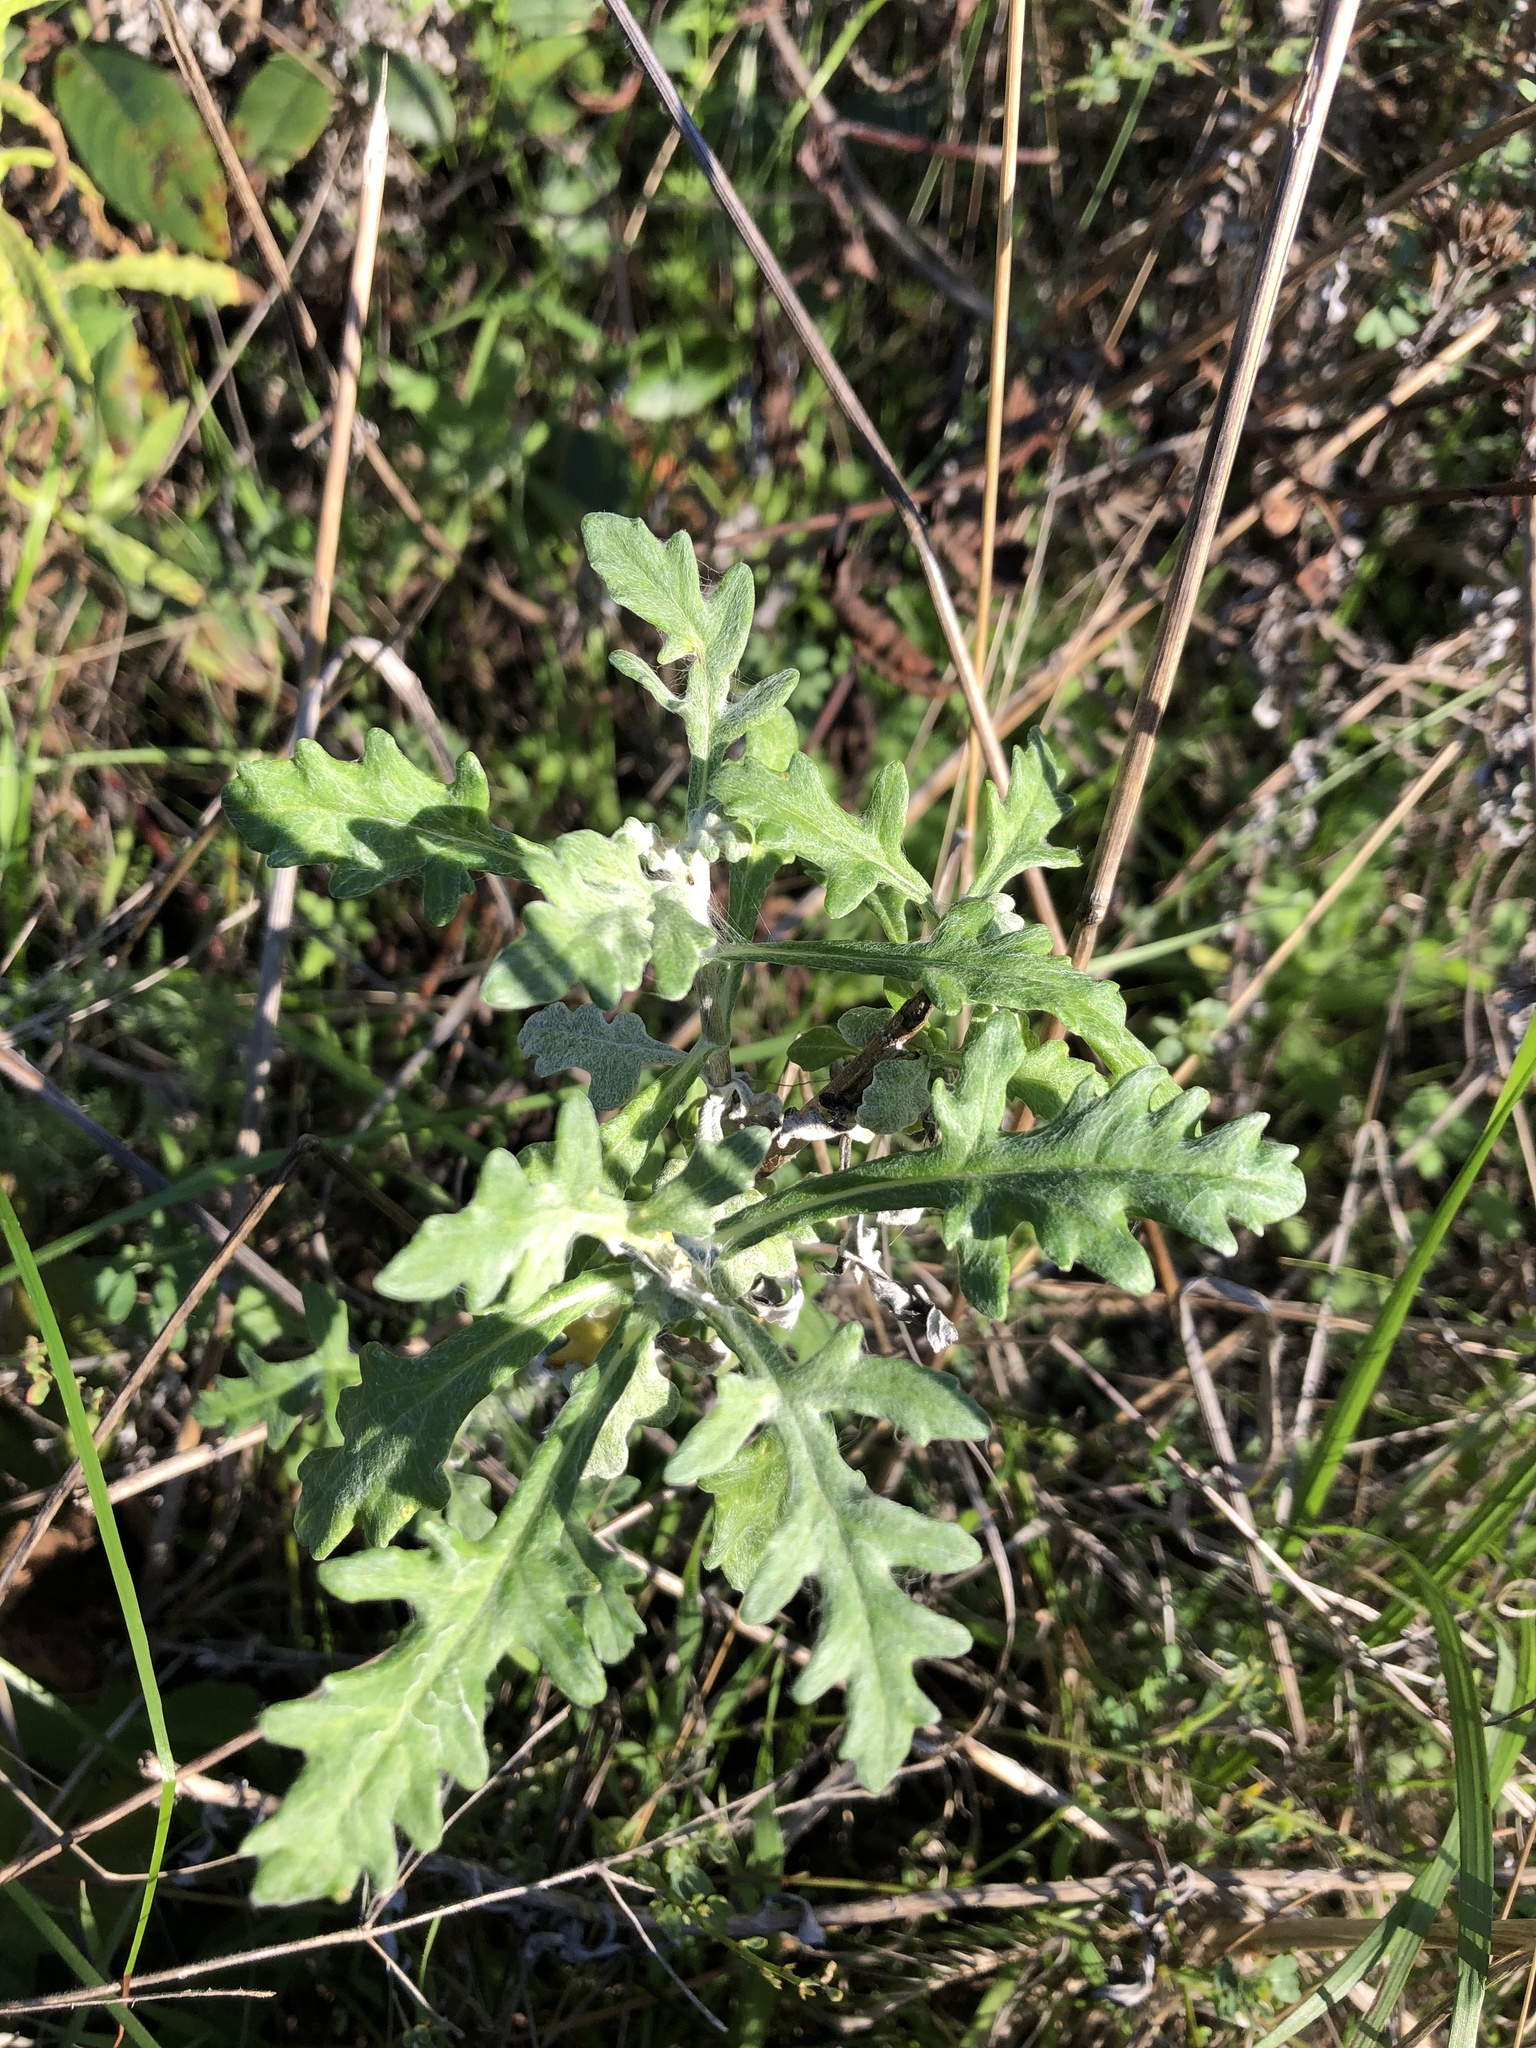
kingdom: Plantae
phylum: Tracheophyta
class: Magnoliopsida
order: Asterales
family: Asteraceae
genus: Eriophyllum
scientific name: Eriophyllum staechadifolium
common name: Lizardtail
